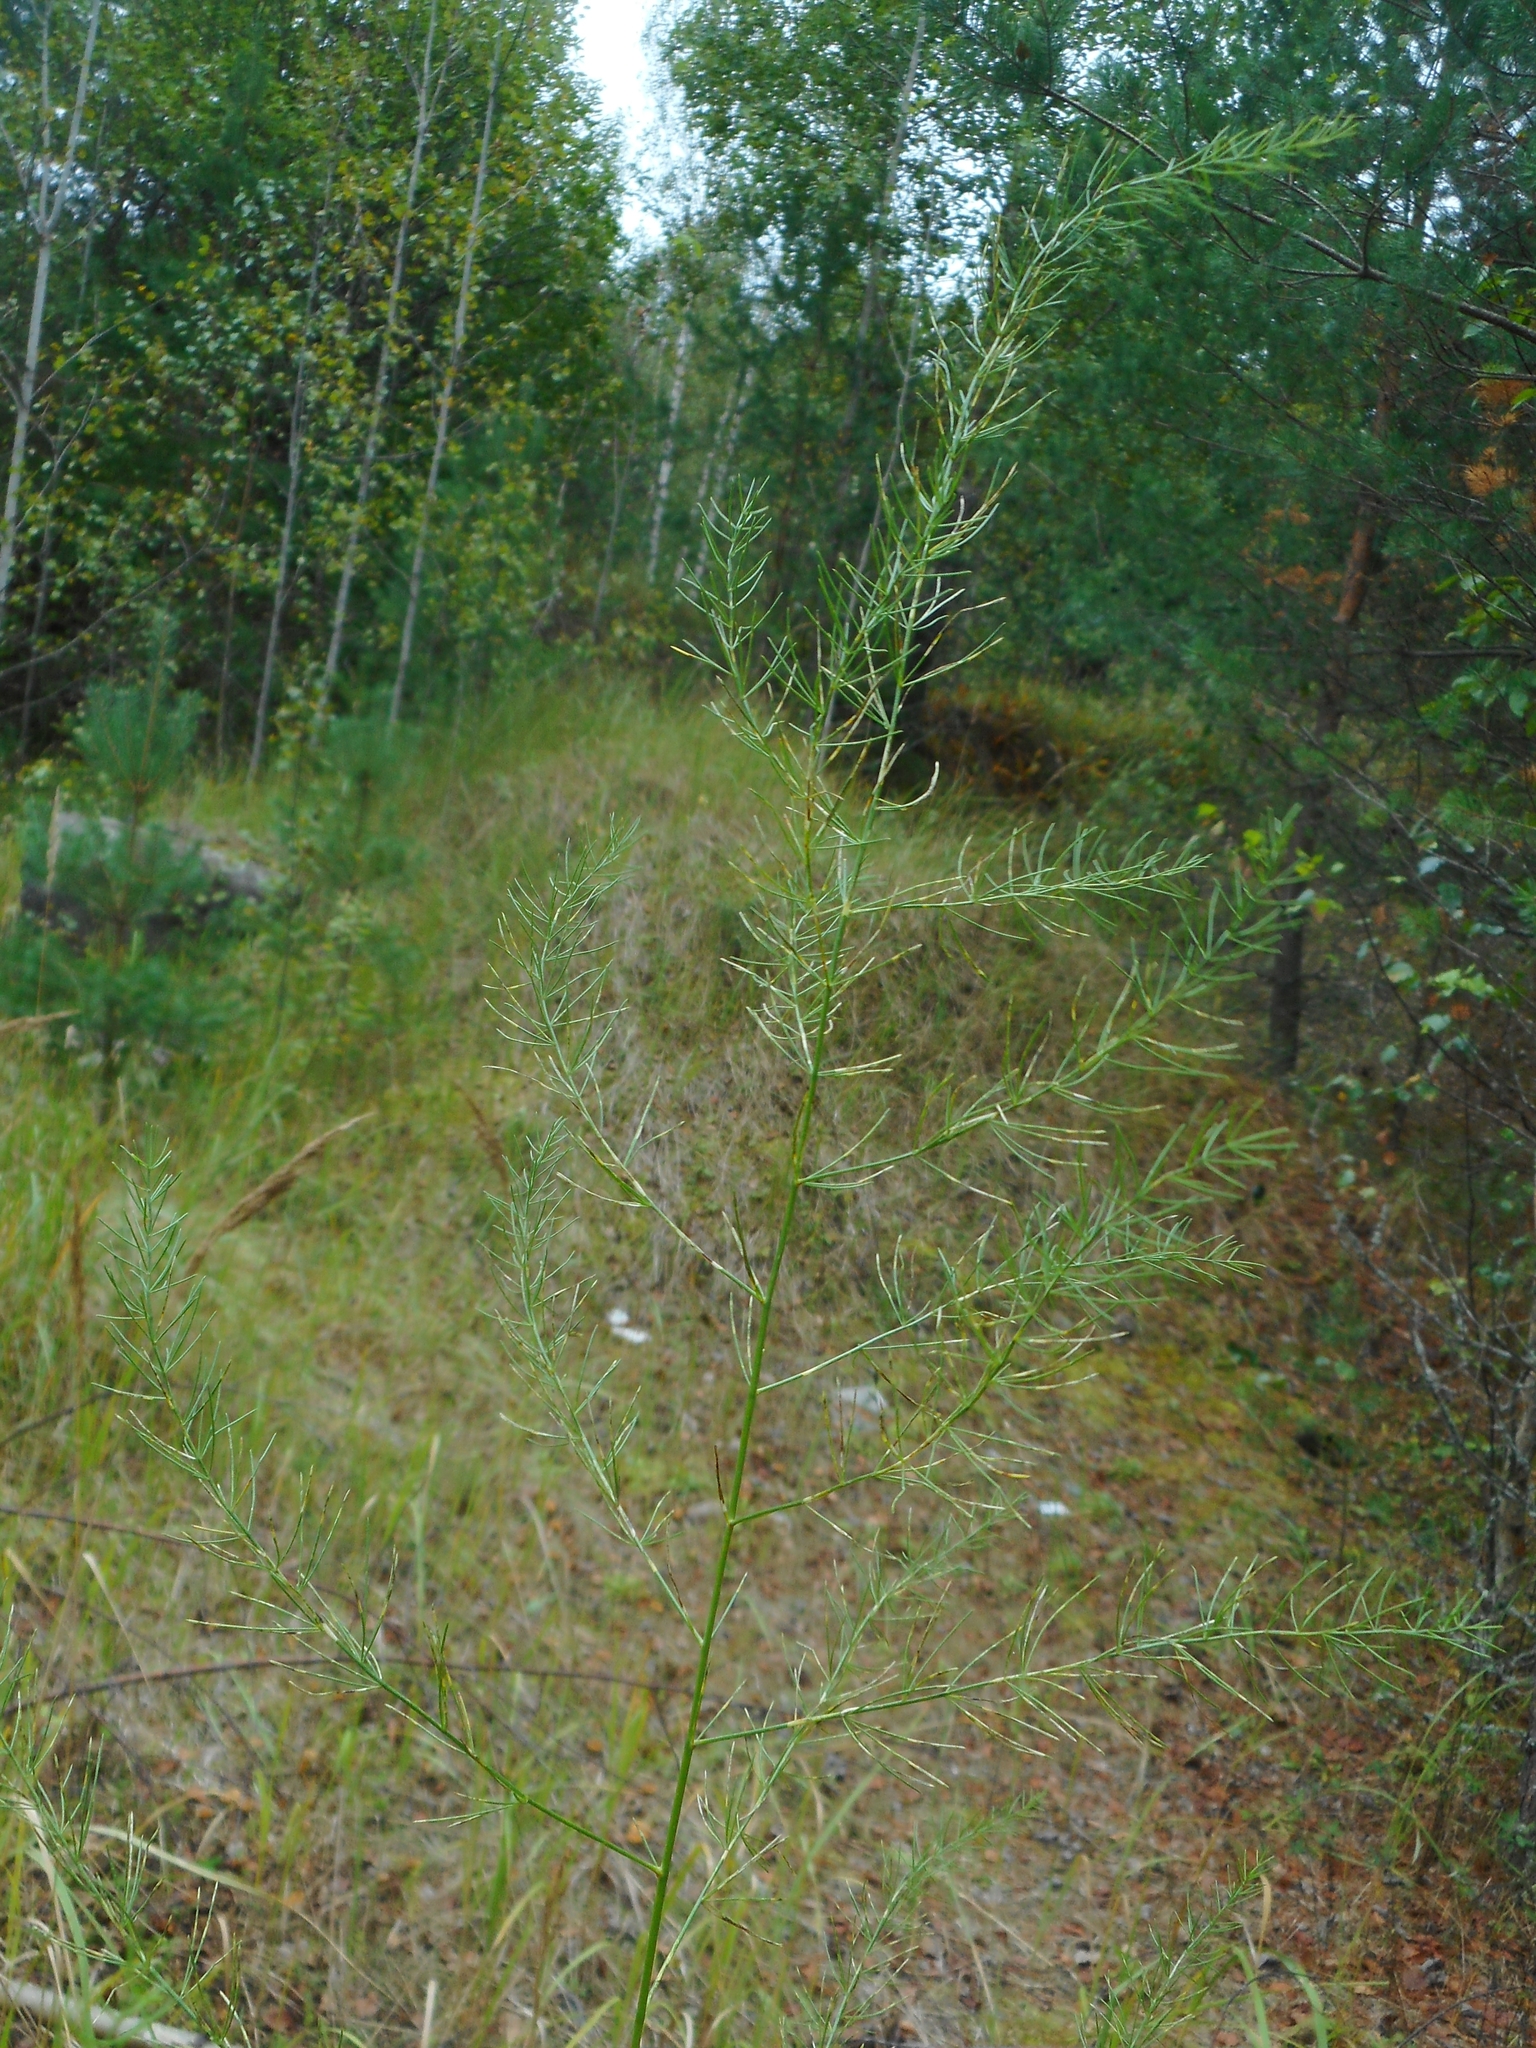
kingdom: Plantae
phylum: Tracheophyta
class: Liliopsida
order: Asparagales
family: Asparagaceae
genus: Asparagus
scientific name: Asparagus officinalis
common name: Garden asparagus
